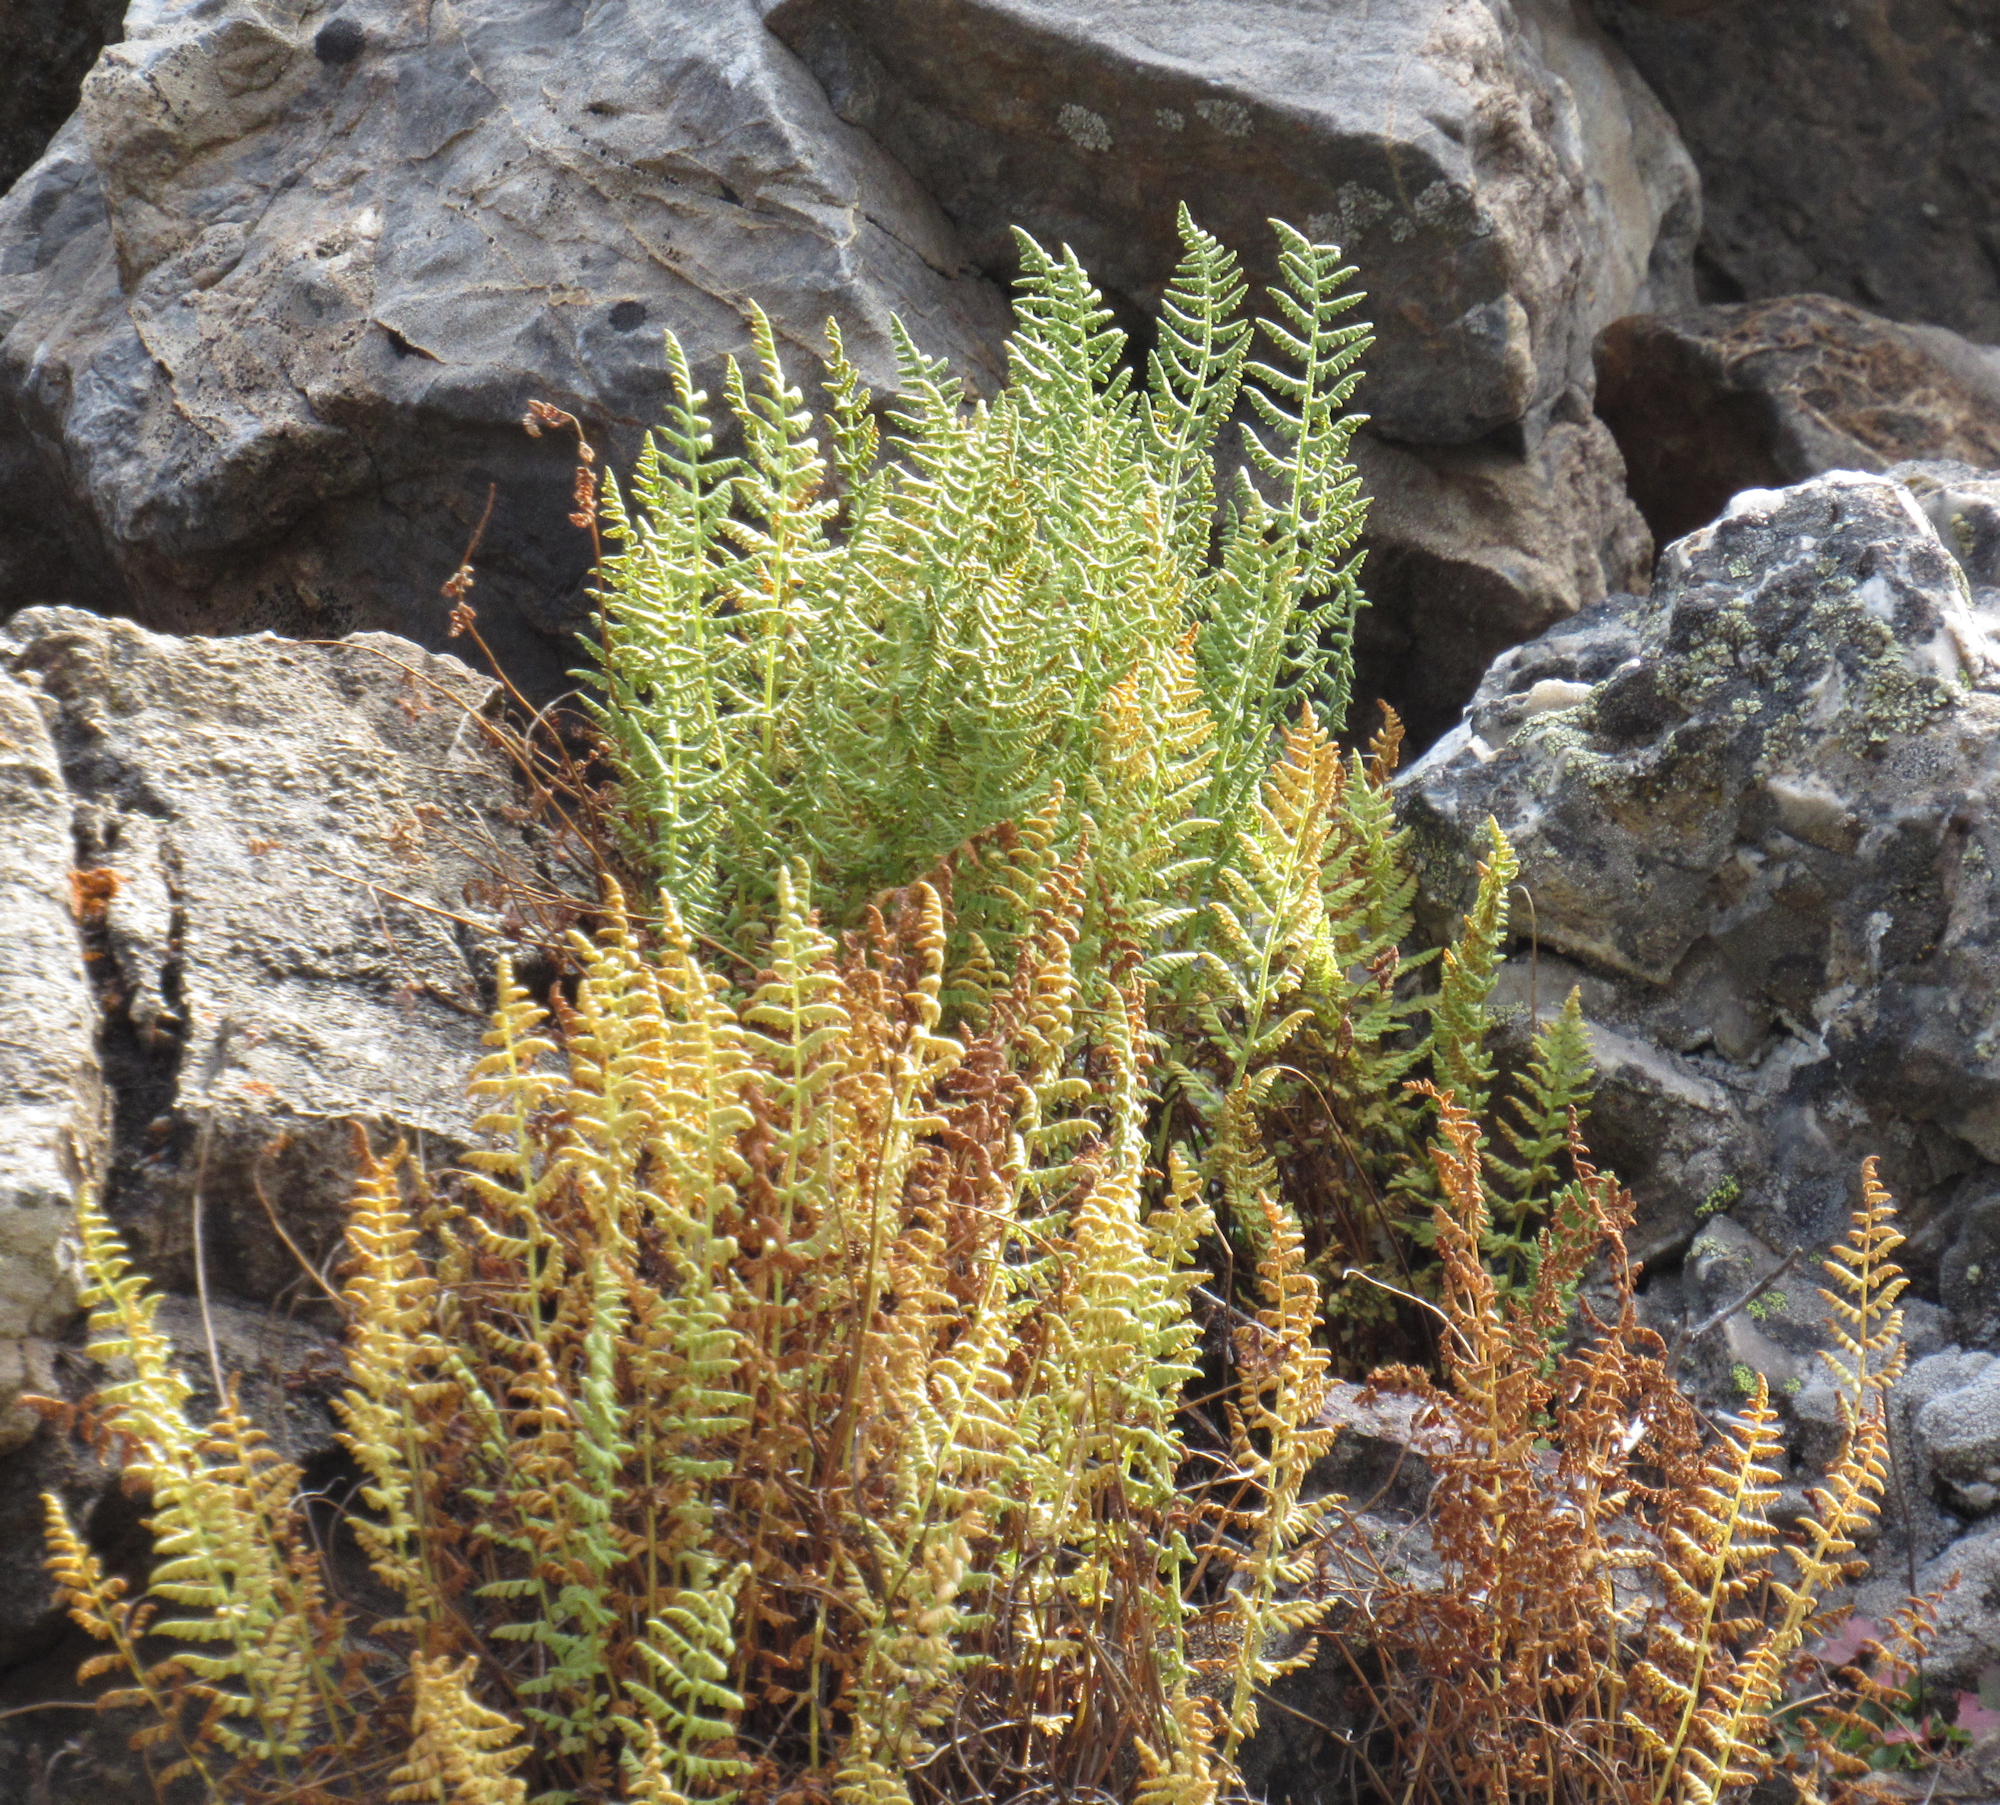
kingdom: Plantae
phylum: Tracheophyta
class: Polypodiopsida
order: Polypodiales
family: Woodsiaceae
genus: Physematium
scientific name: Physematium scopulinum
